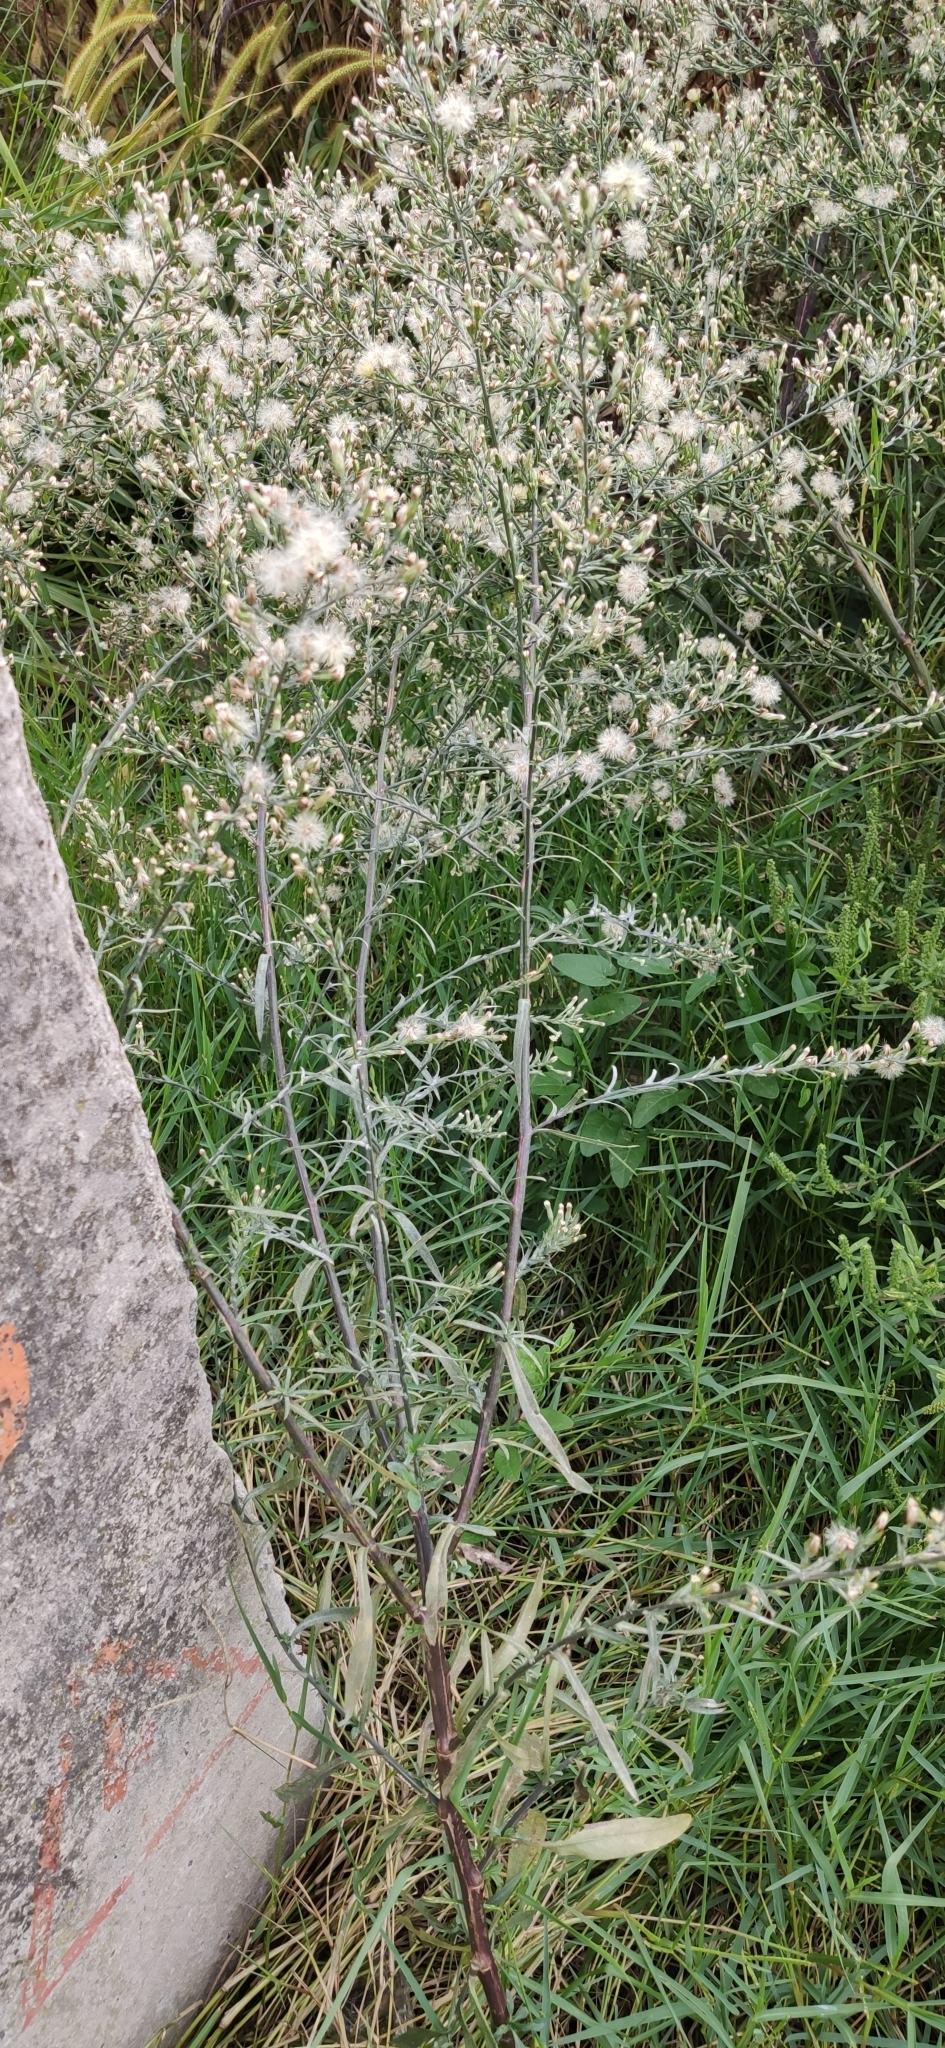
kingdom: Plantae
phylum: Tracheophyta
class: Magnoliopsida
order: Asterales
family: Asteraceae
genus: Symphyotrichum
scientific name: Symphyotrichum subulatum
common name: Annual saltmarsh aster
